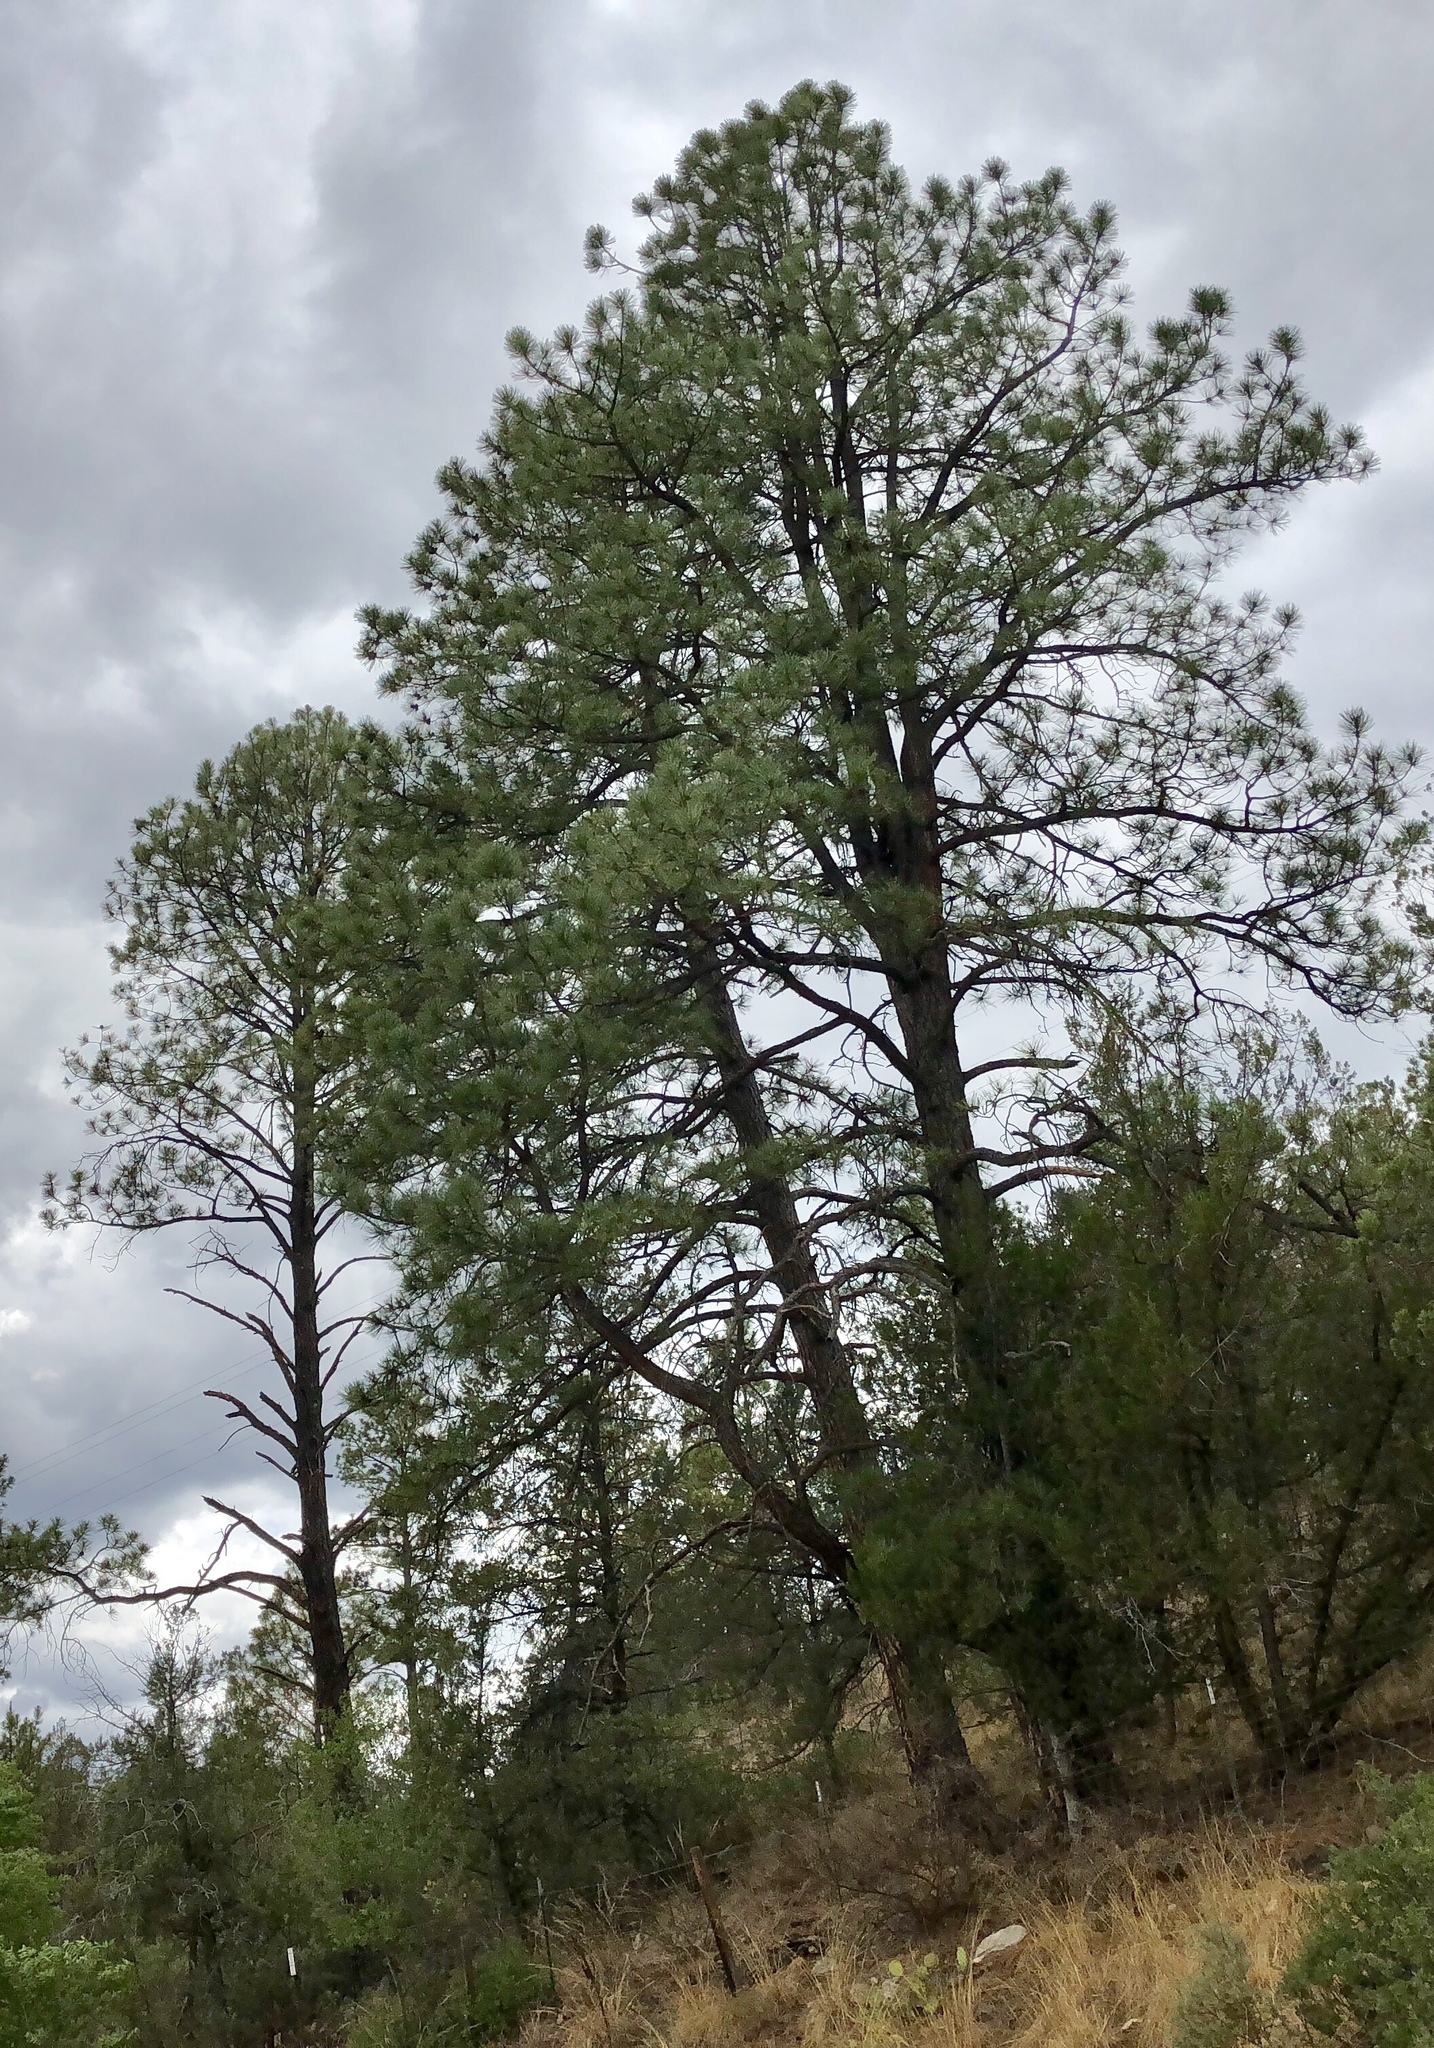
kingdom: Plantae
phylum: Tracheophyta
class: Pinopsida
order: Pinales
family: Pinaceae
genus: Pinus
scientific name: Pinus ponderosa
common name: Western yellow-pine
